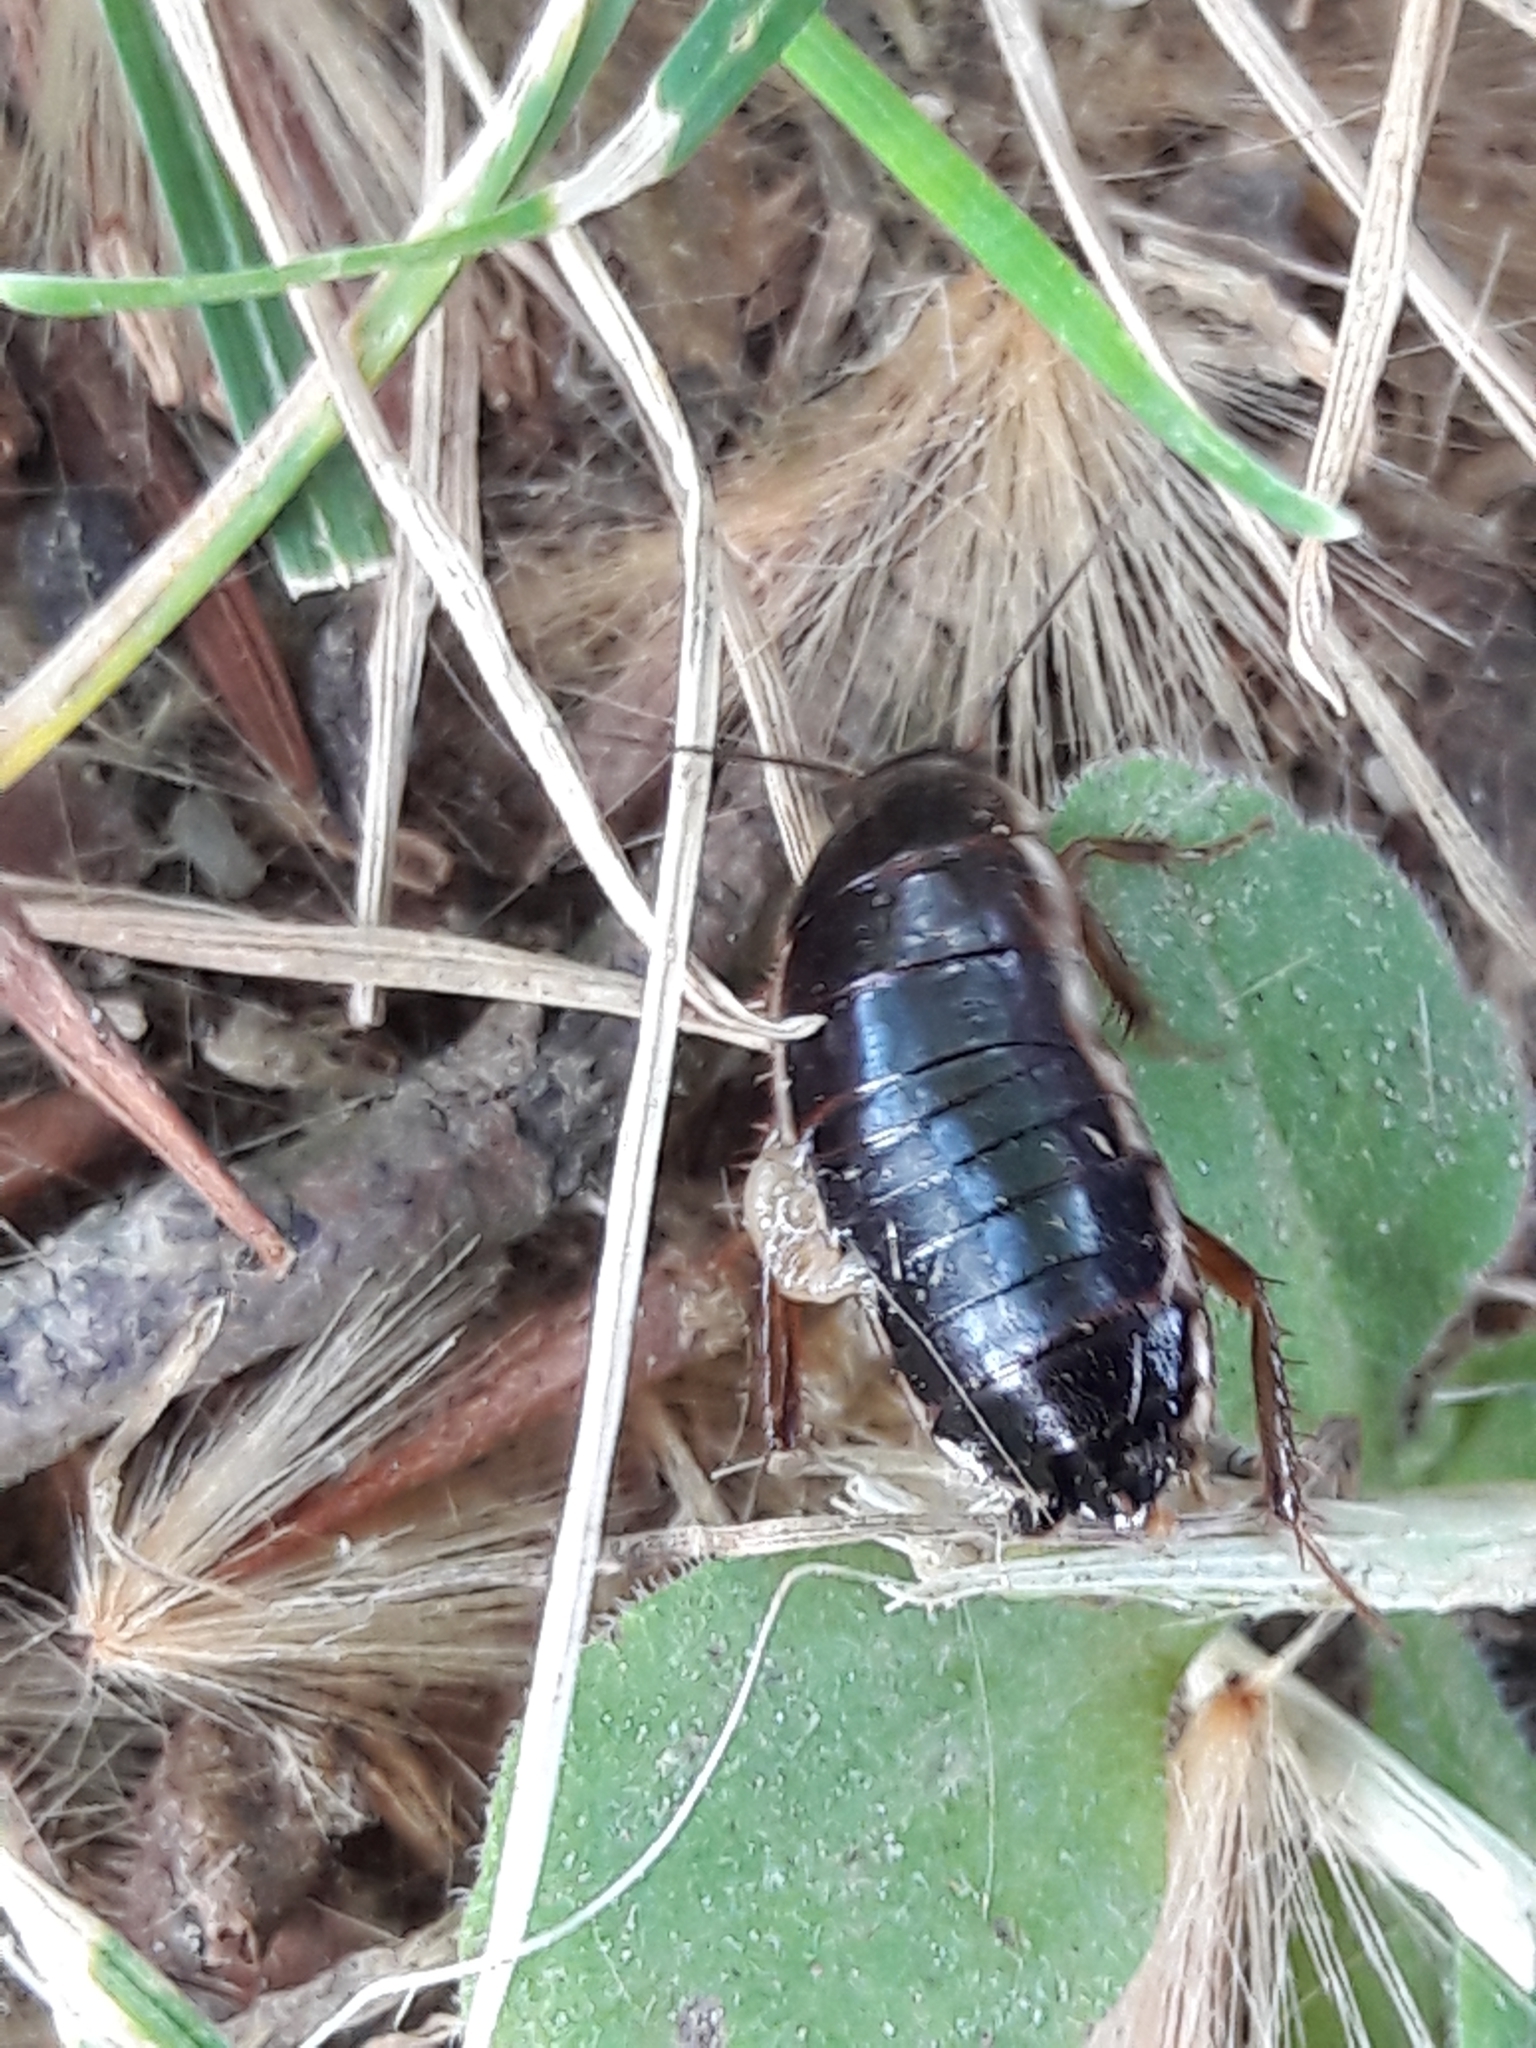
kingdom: Animalia
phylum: Arthropoda
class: Insecta
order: Blattodea
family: Ectobiidae
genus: Loboptera
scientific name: Loboptera decipiens
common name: Lobe-winged cockroach
